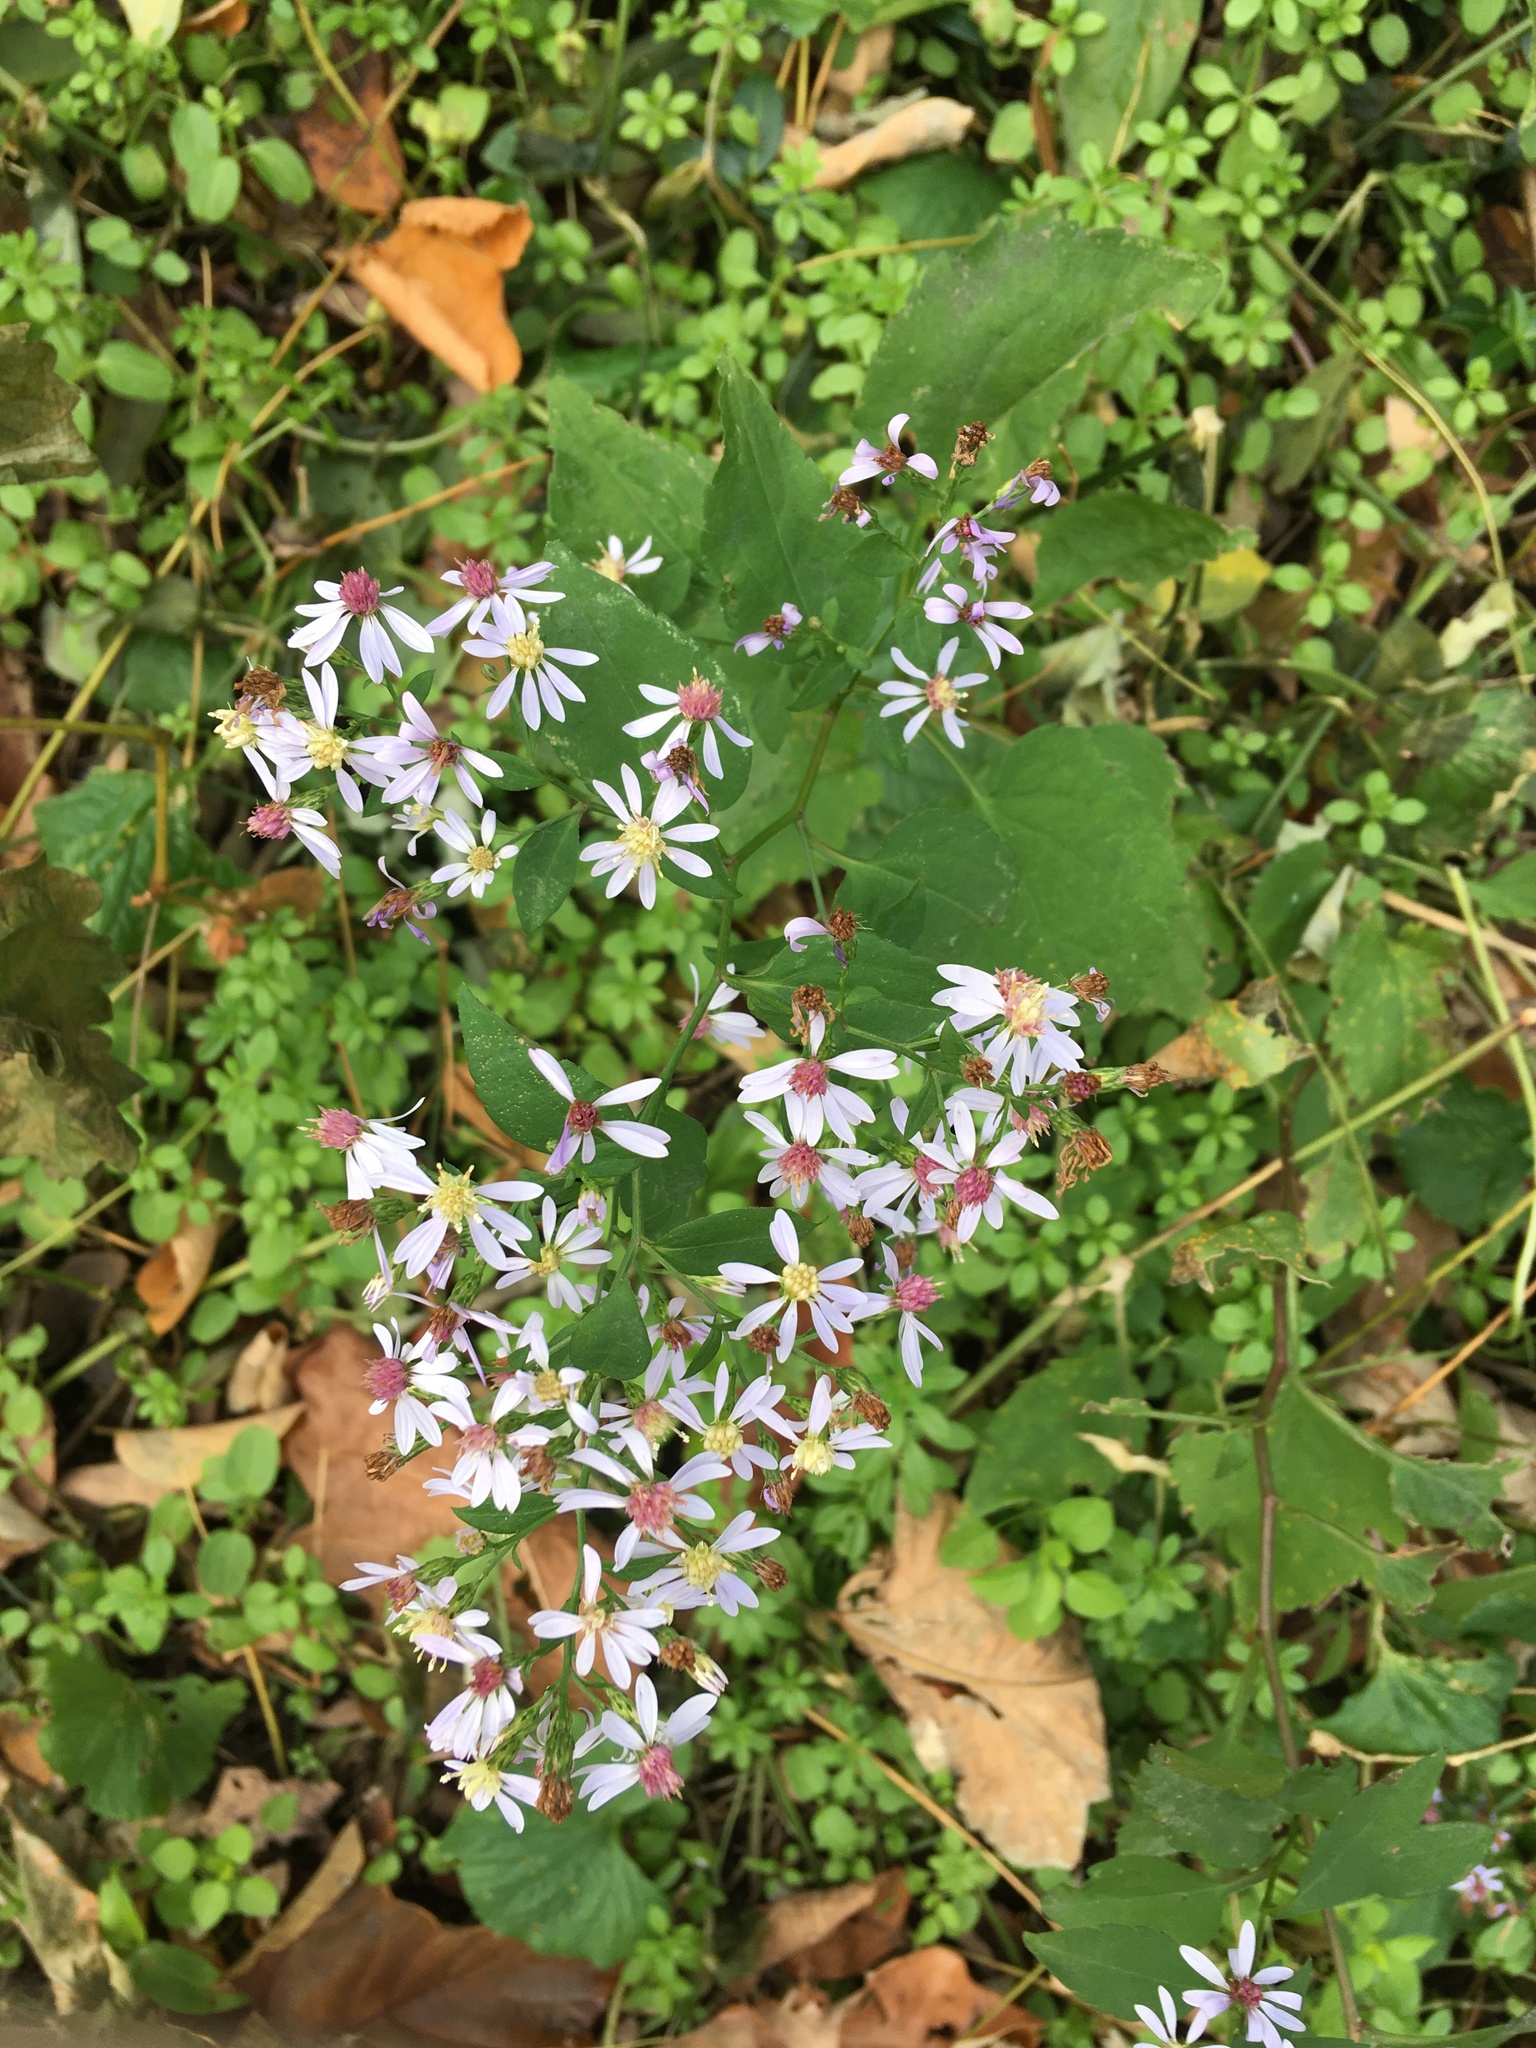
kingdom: Plantae
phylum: Tracheophyta
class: Magnoliopsida
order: Asterales
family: Asteraceae
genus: Symphyotrichum
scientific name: Symphyotrichum cordifolium
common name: Beeweed
